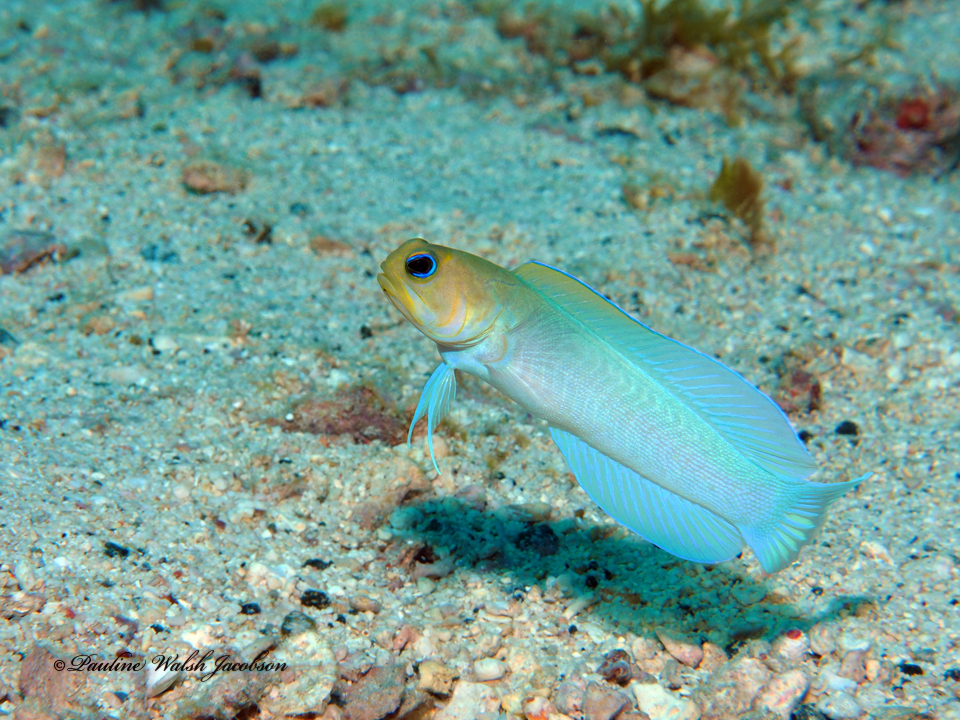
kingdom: Animalia
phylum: Chordata
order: Perciformes
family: Opistognathidae
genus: Opistognathus
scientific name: Opistognathus aurifrons
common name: Yellowhead jawfish
